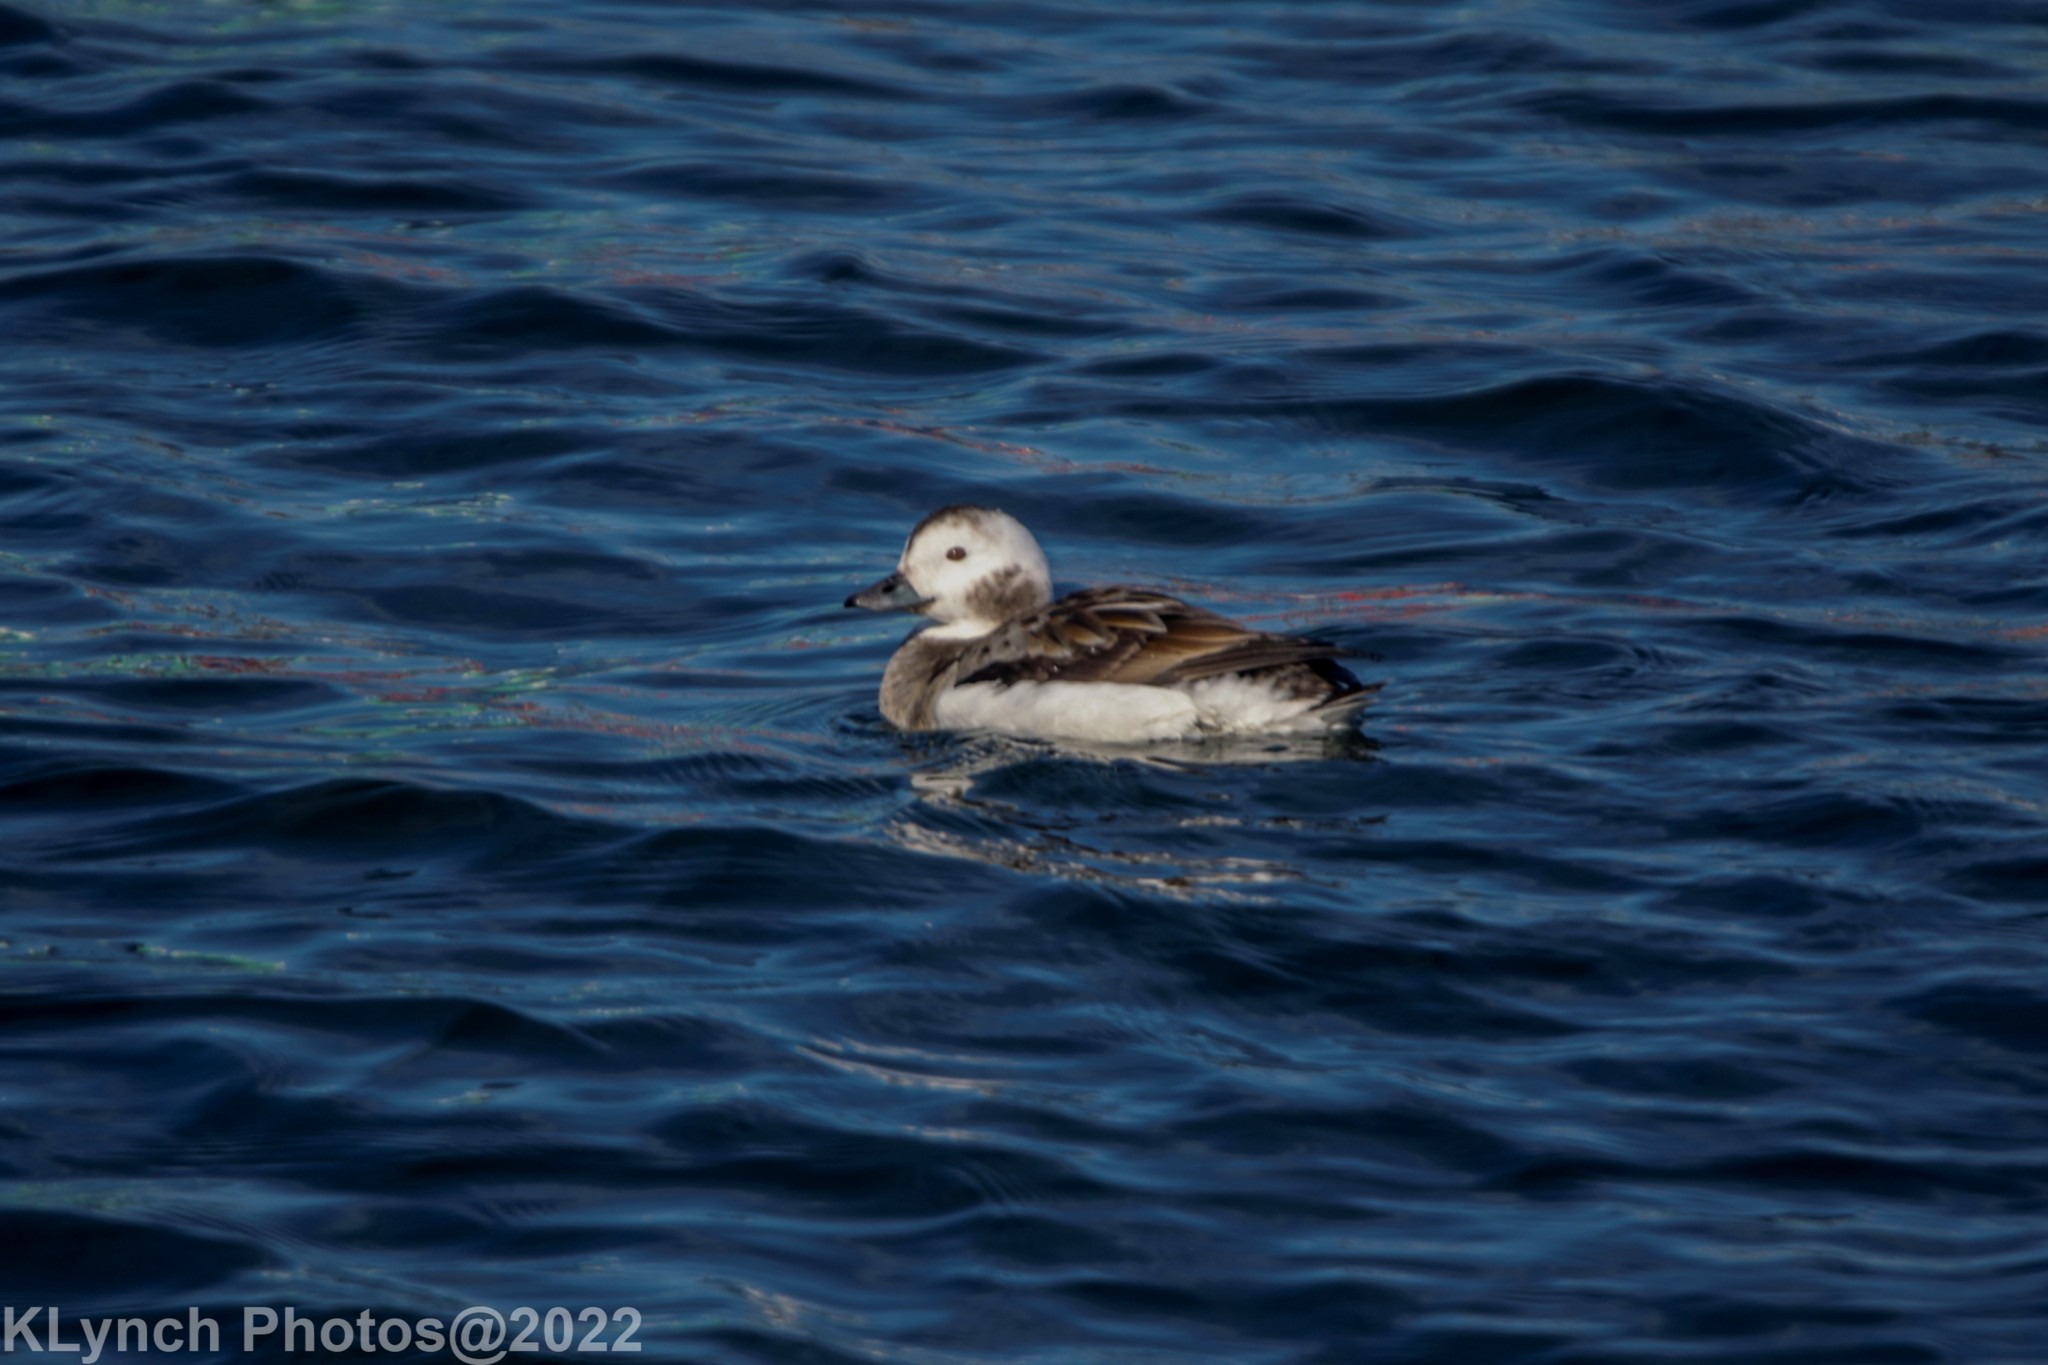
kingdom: Animalia
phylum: Chordata
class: Aves
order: Anseriformes
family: Anatidae
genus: Clangula
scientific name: Clangula hyemalis
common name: Long-tailed duck
